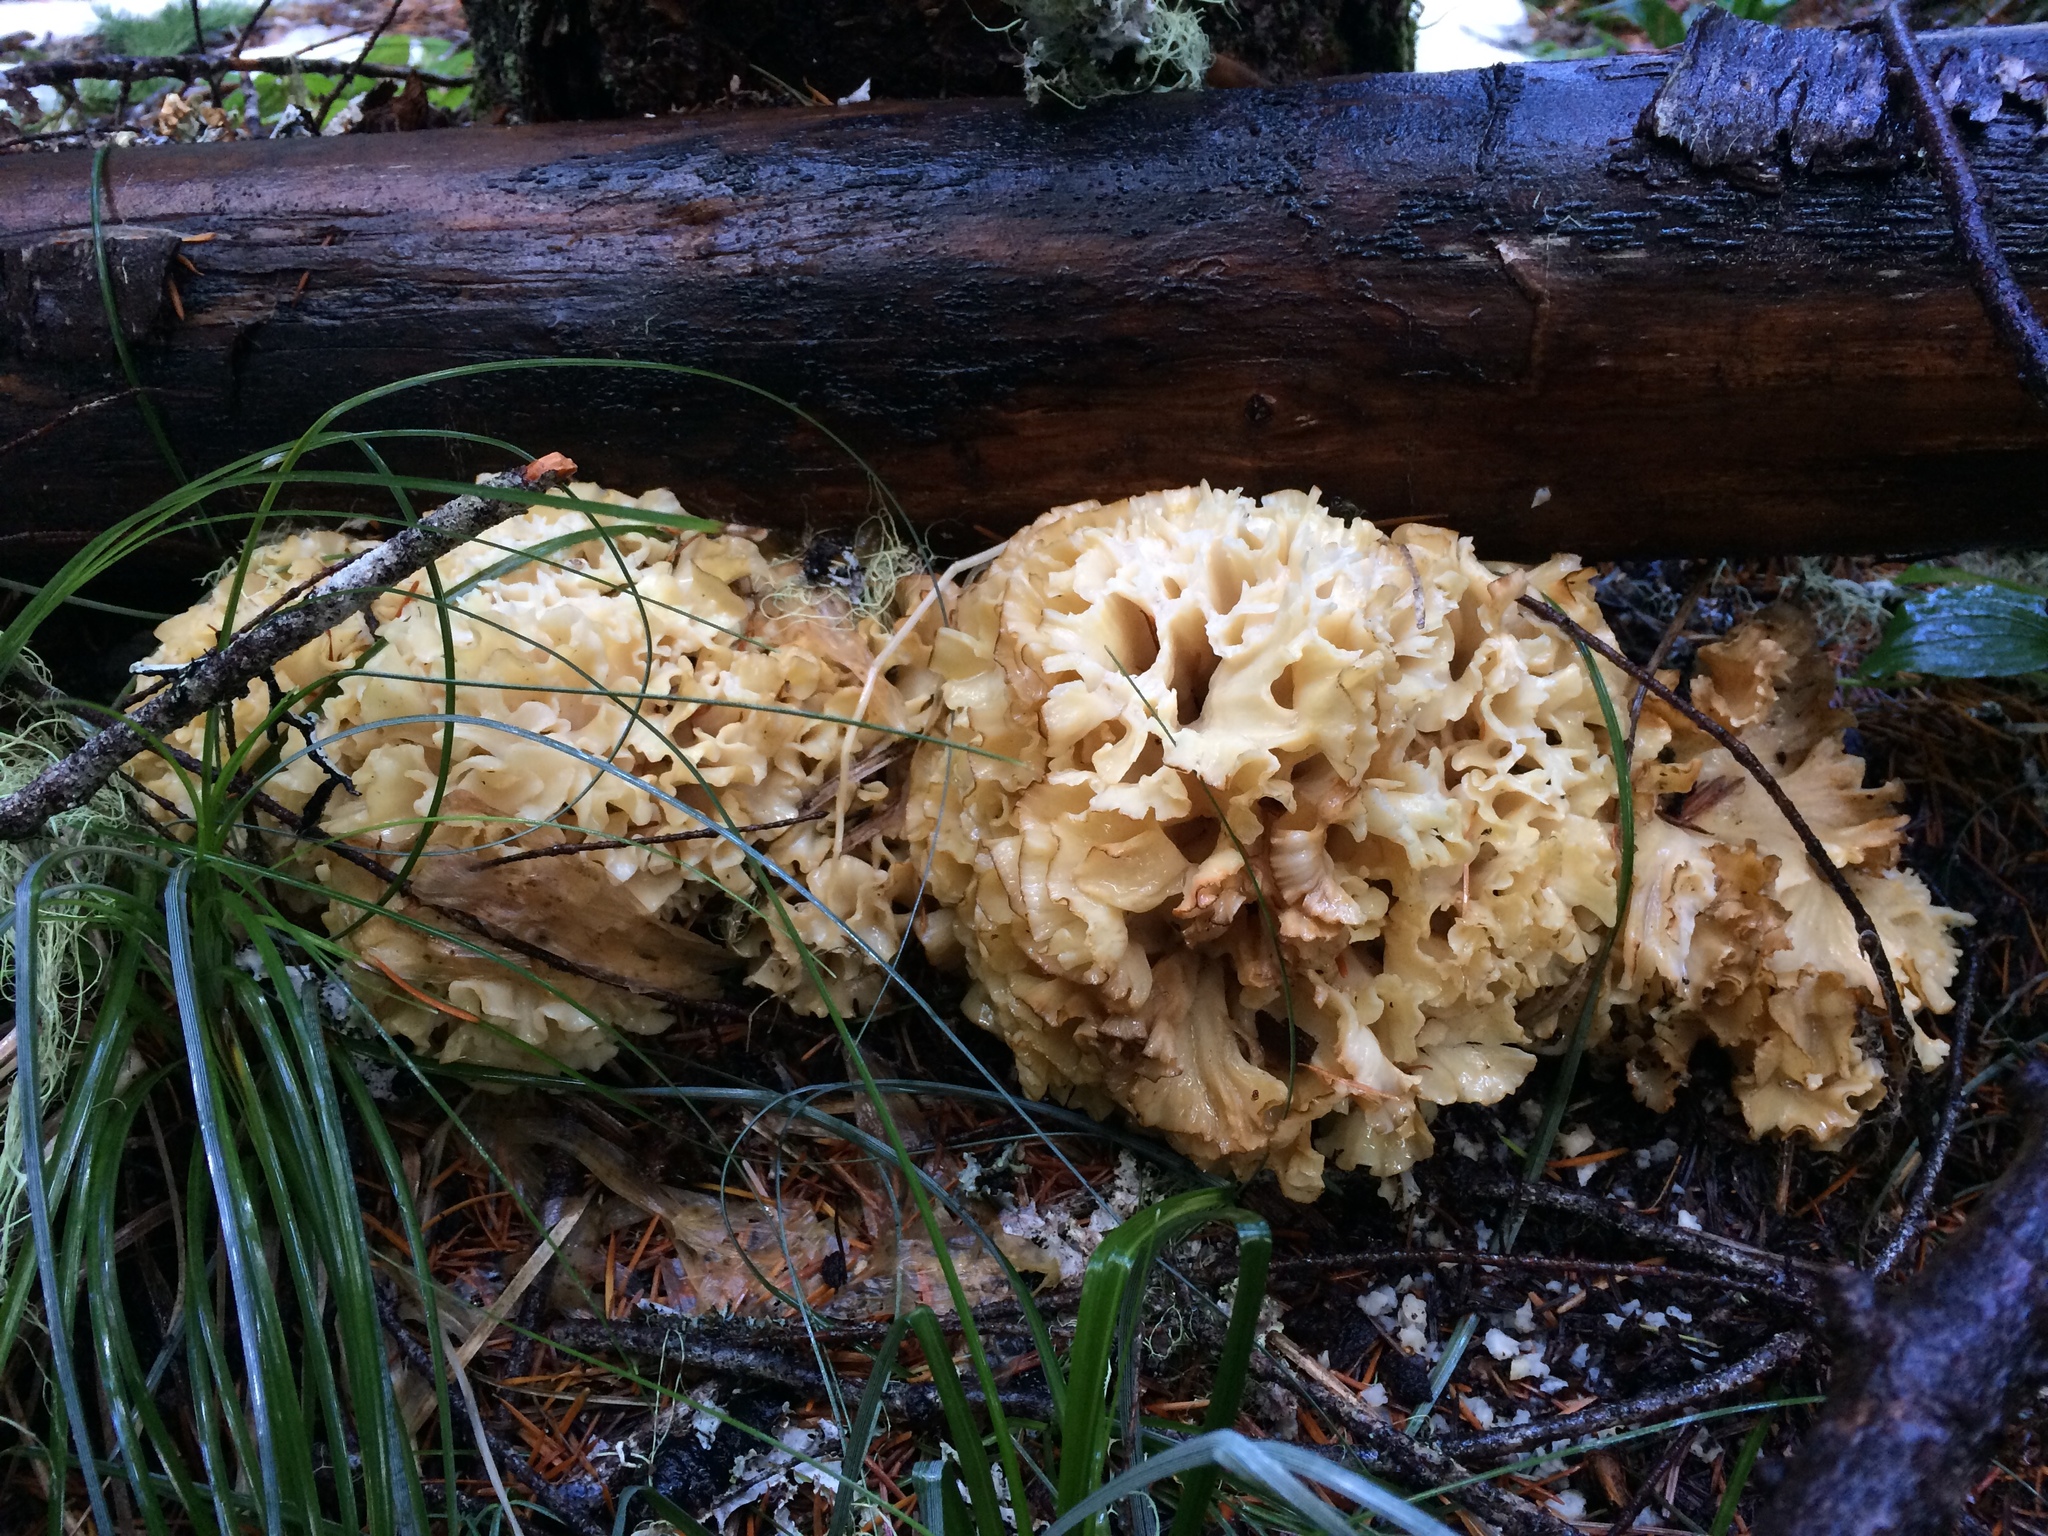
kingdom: Fungi
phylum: Basidiomycota
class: Agaricomycetes
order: Polyporales
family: Sparassidaceae
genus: Sparassis
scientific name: Sparassis radicata
